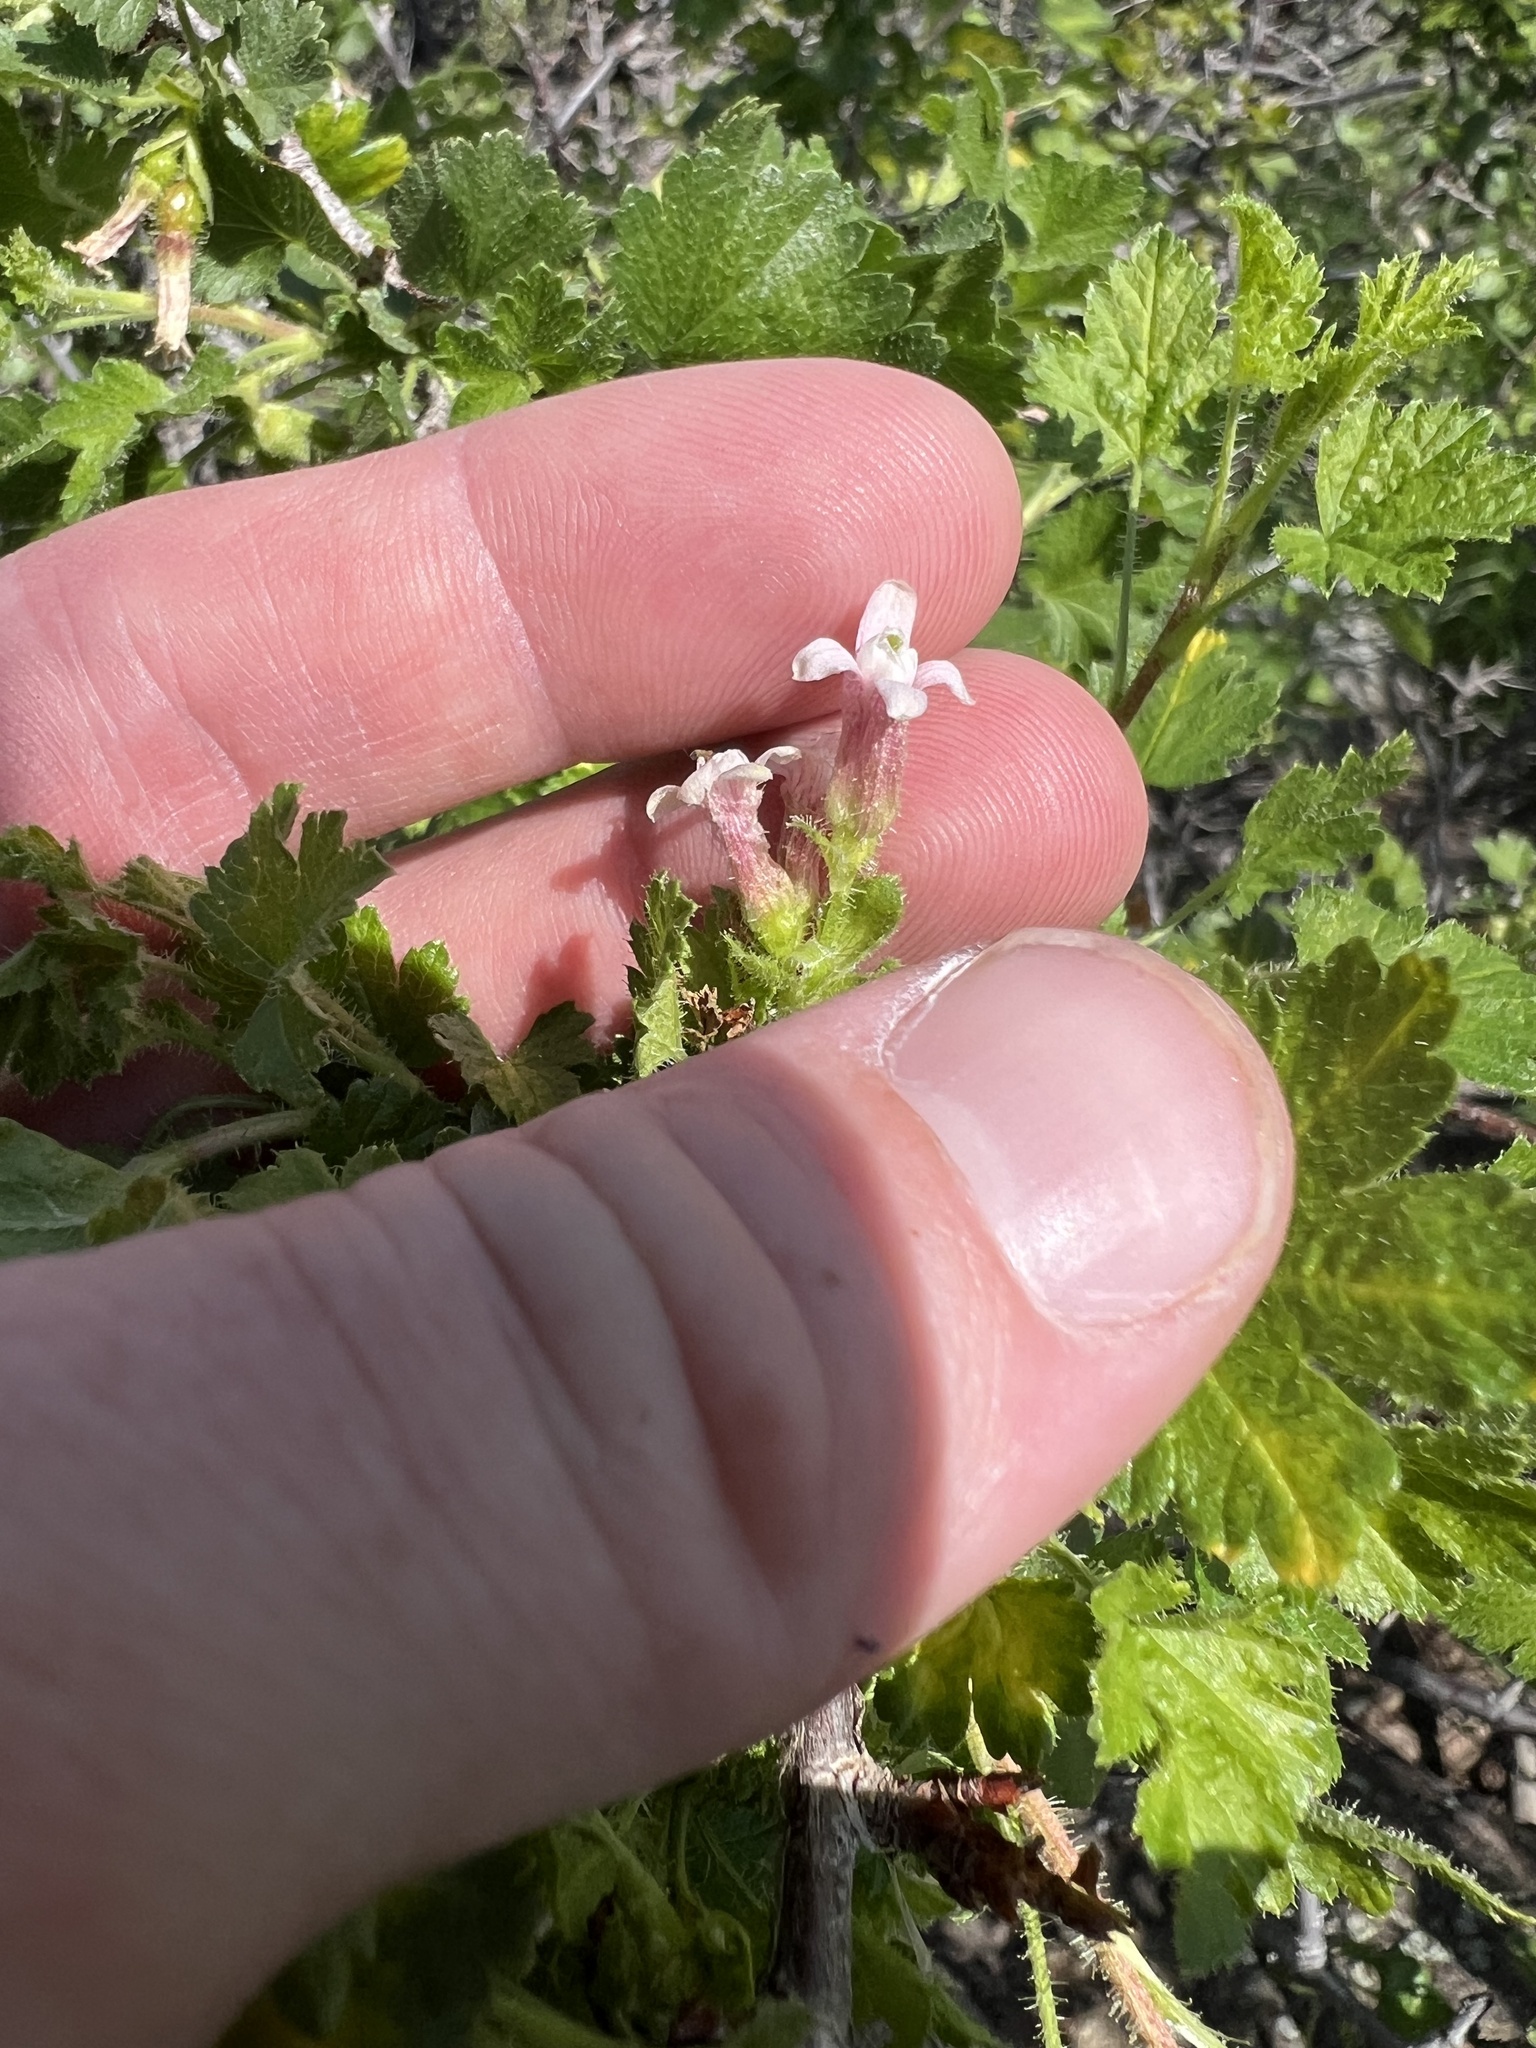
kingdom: Plantae
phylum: Tracheophyta
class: Magnoliopsida
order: Saxifragales
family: Grossulariaceae
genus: Ribes
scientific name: Ribes cereum
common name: Wax currant
